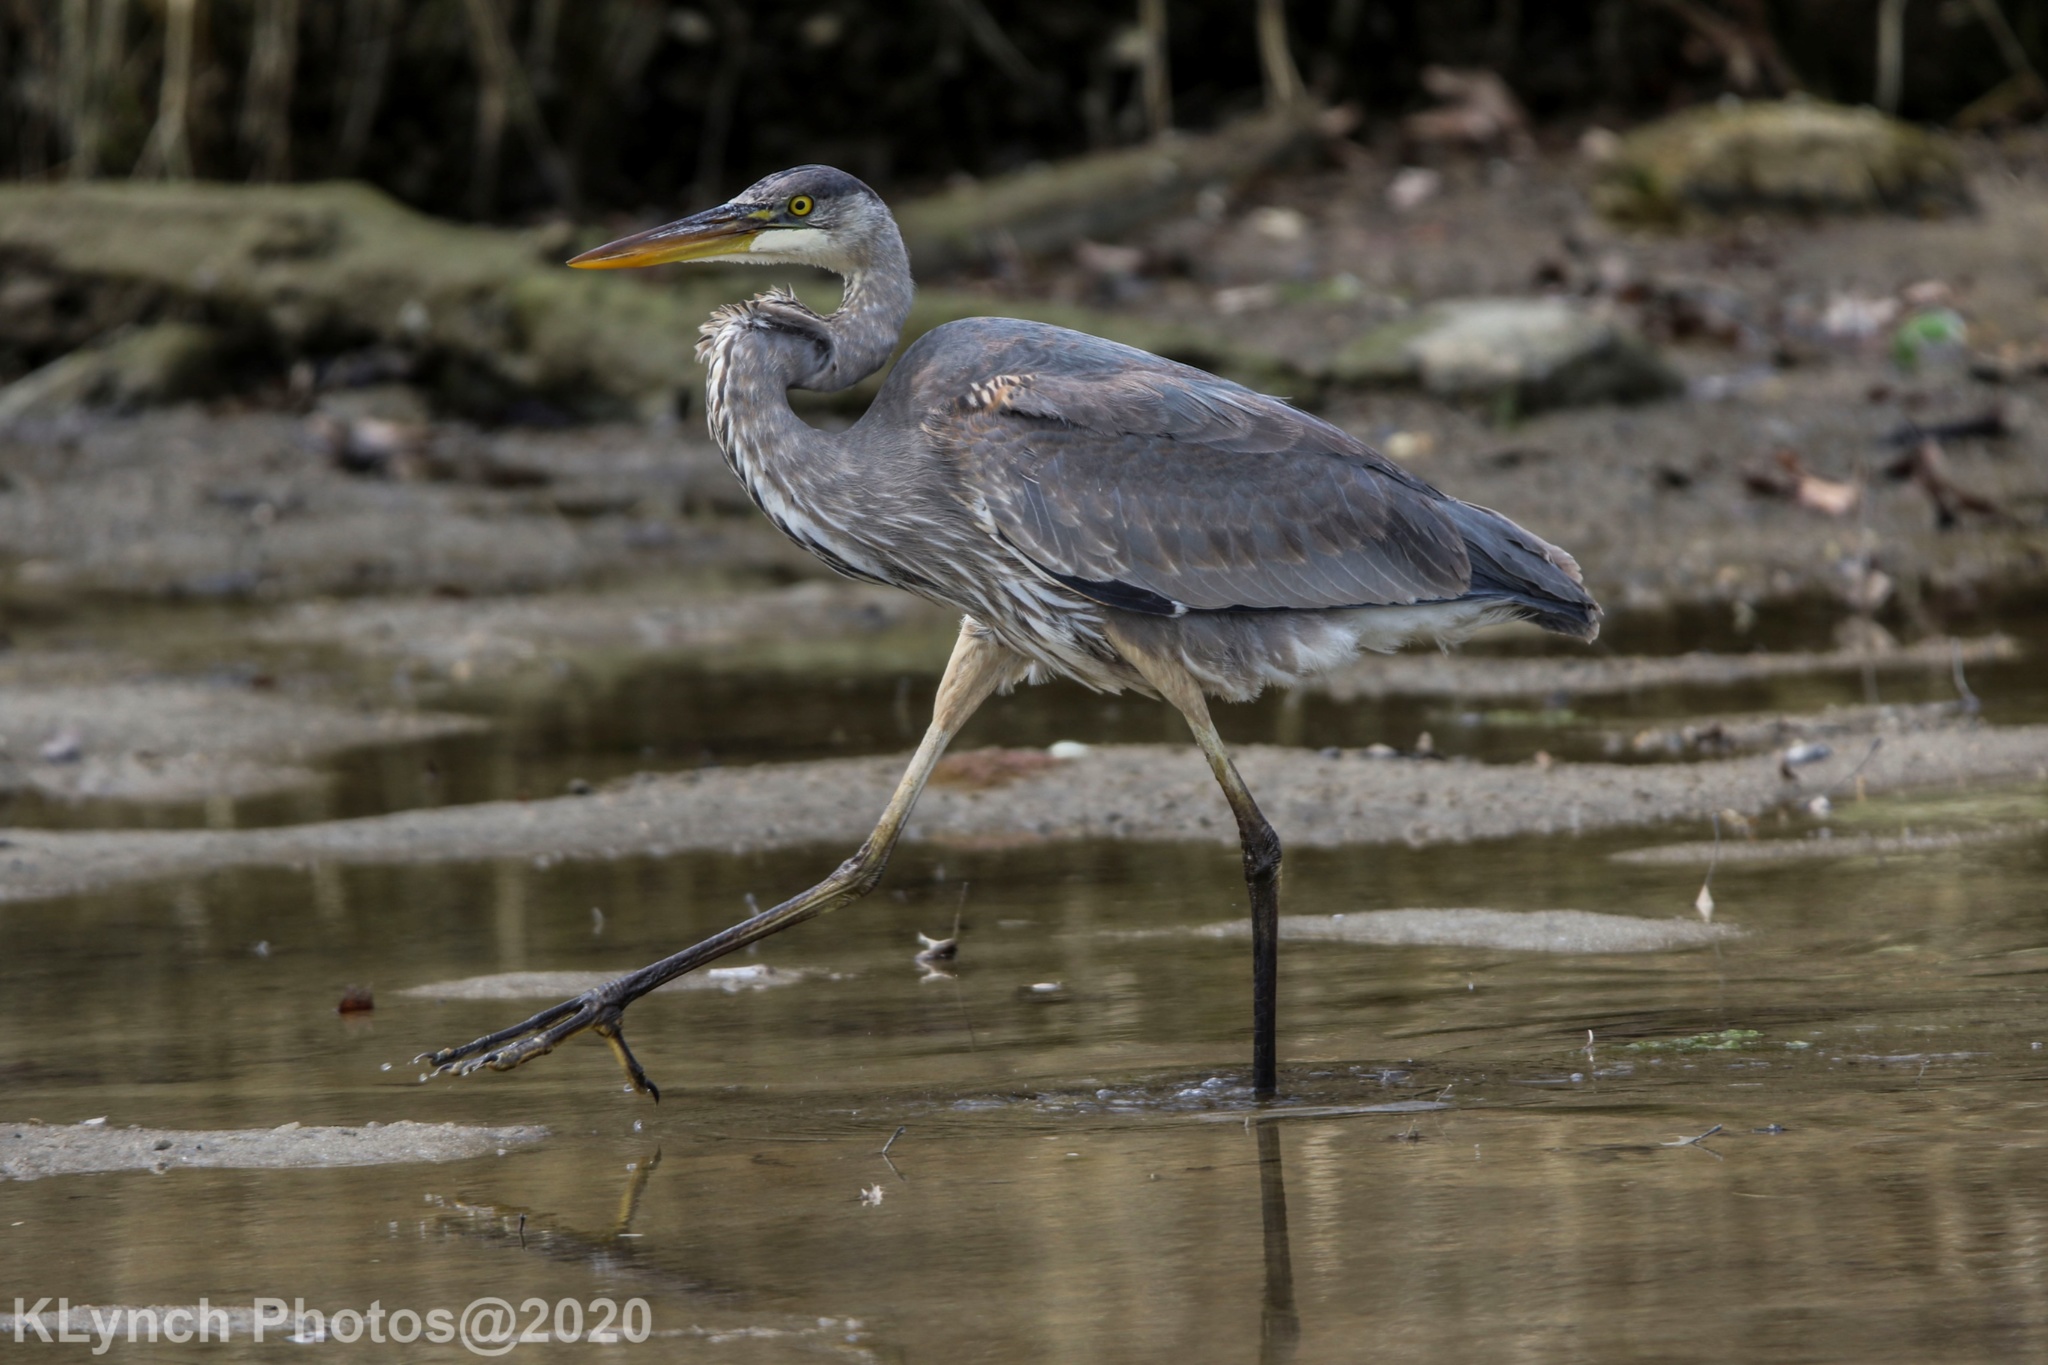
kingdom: Animalia
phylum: Chordata
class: Aves
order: Pelecaniformes
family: Ardeidae
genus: Ardea
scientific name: Ardea herodias
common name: Great blue heron
